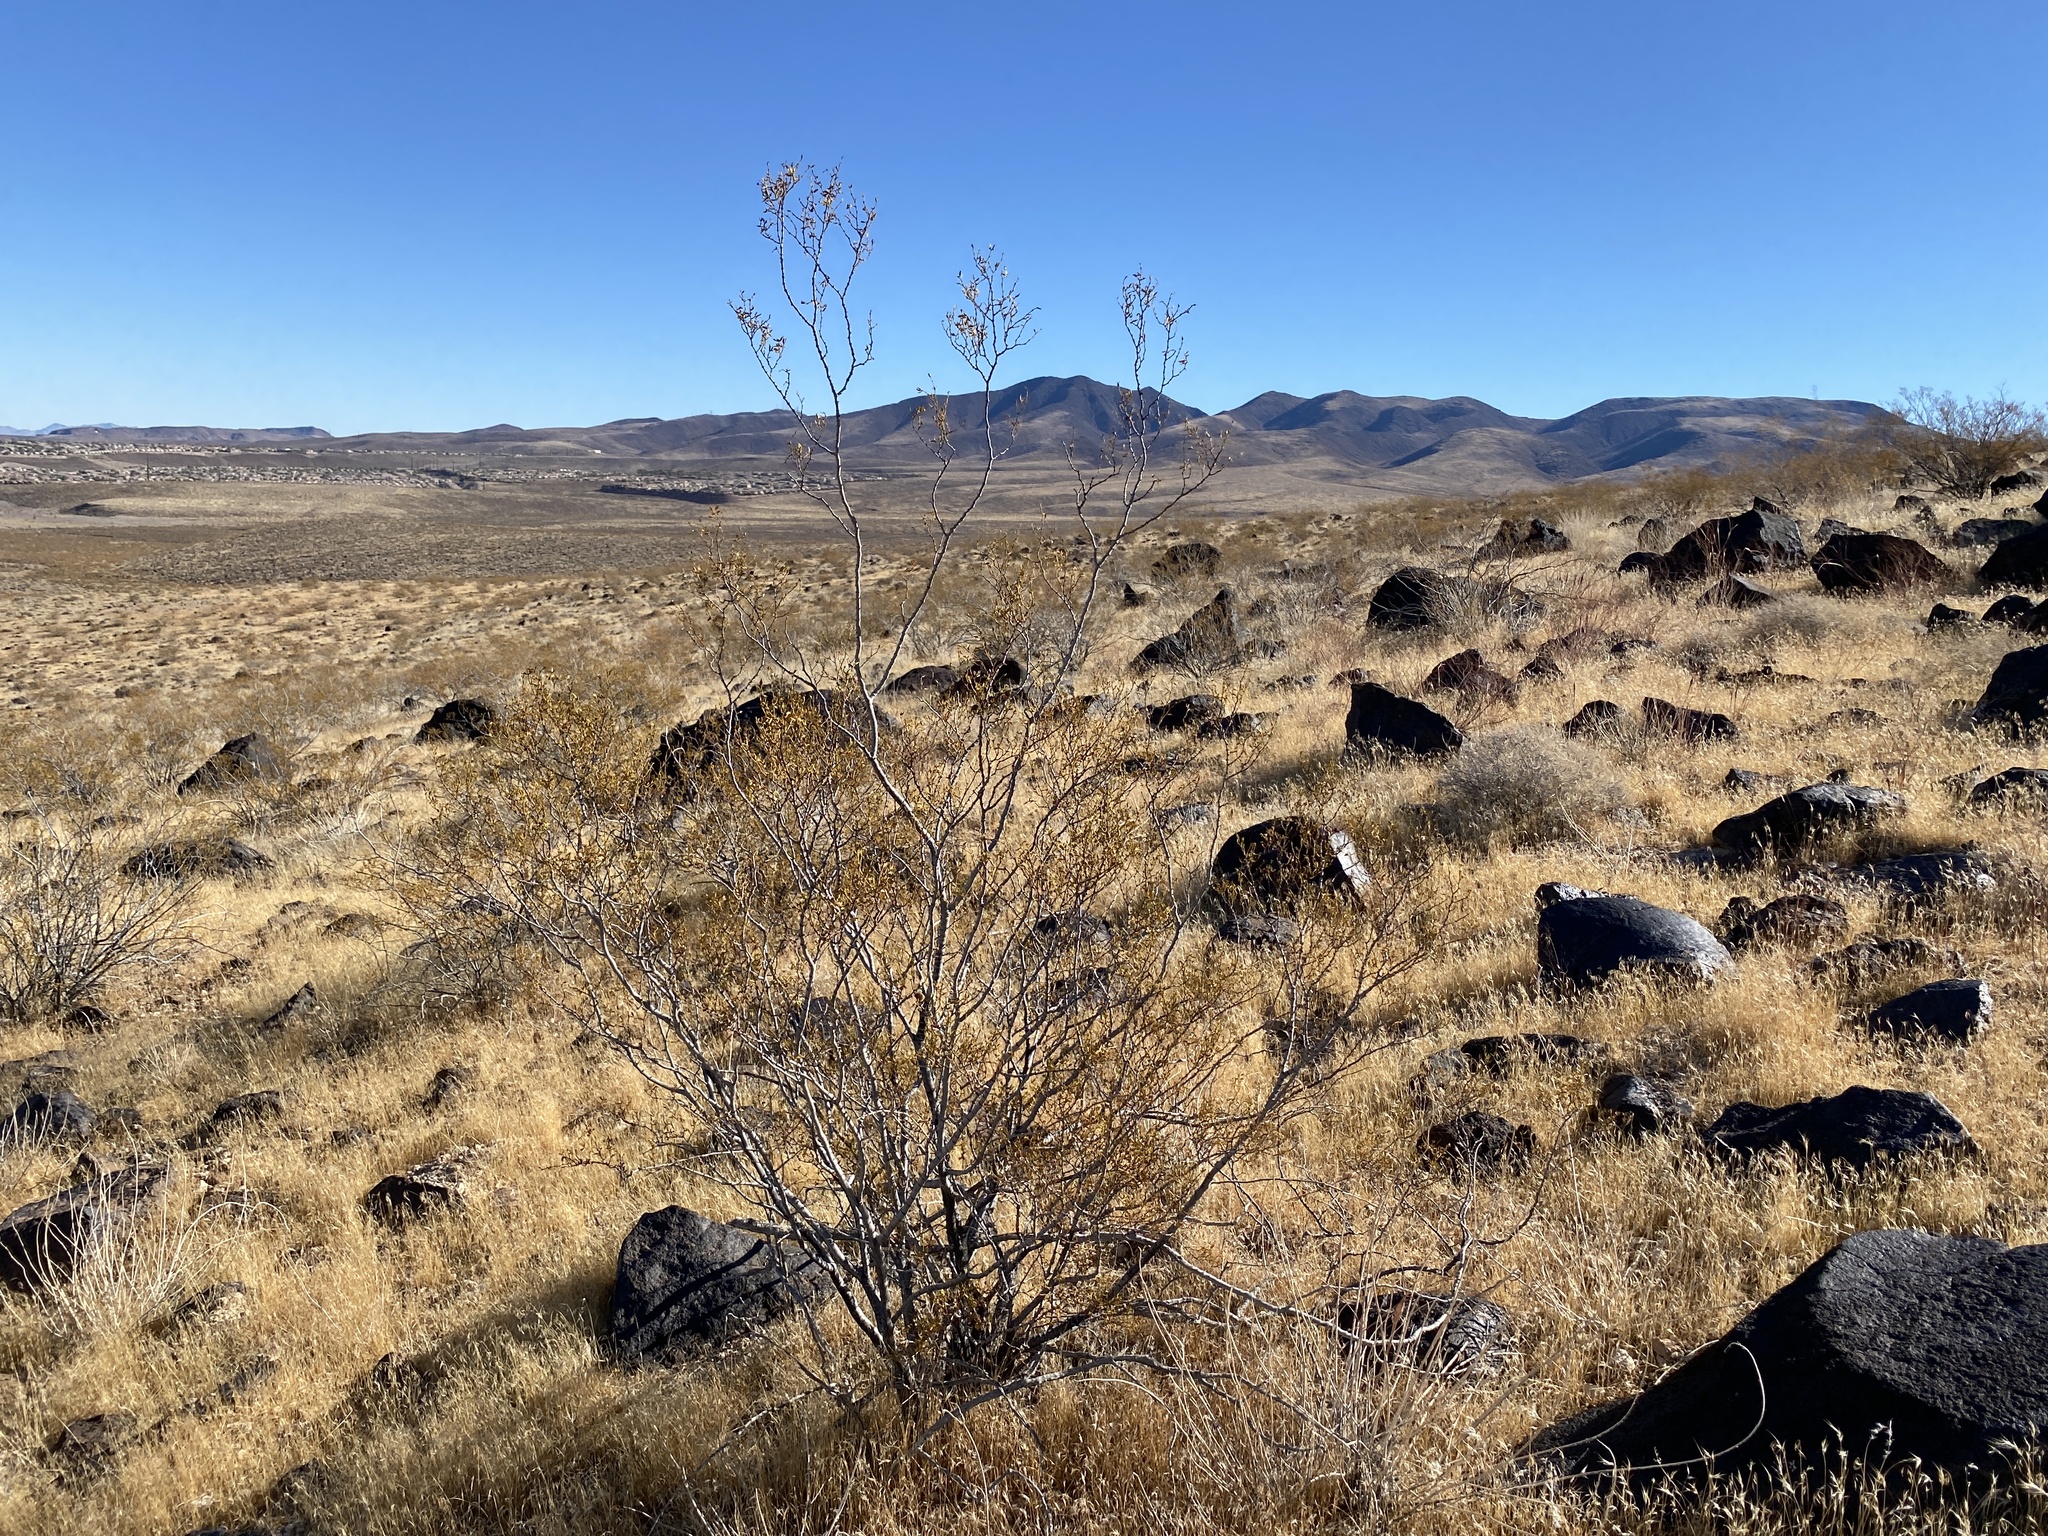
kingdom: Plantae
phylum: Tracheophyta
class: Magnoliopsida
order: Zygophyllales
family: Zygophyllaceae
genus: Larrea
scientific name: Larrea tridentata
